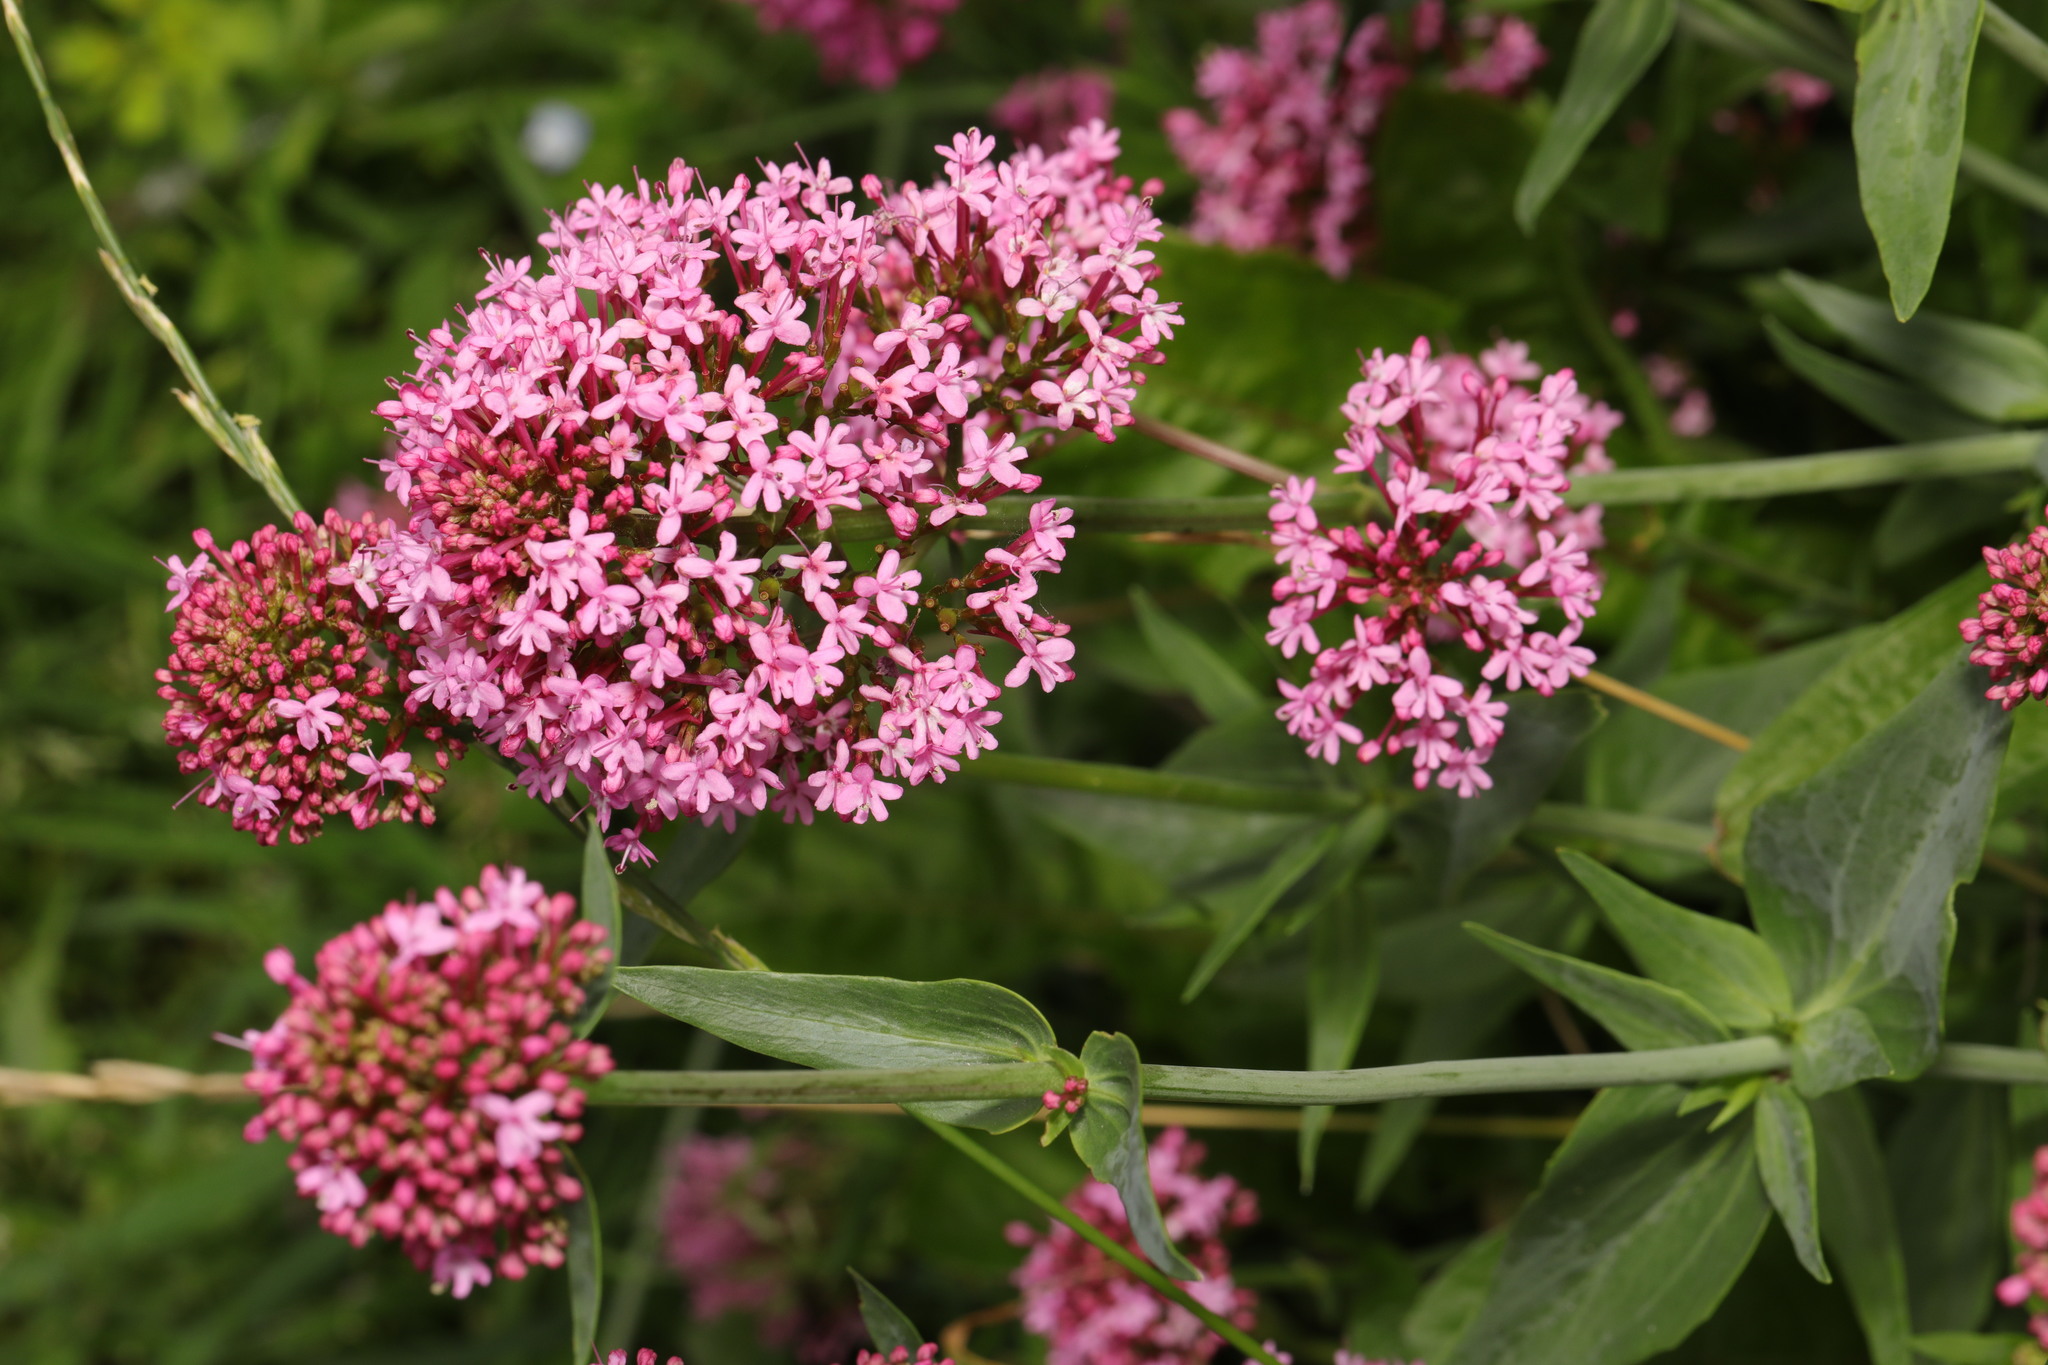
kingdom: Plantae
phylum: Tracheophyta
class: Magnoliopsida
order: Dipsacales
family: Caprifoliaceae
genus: Centranthus
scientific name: Centranthus ruber
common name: Red valerian
